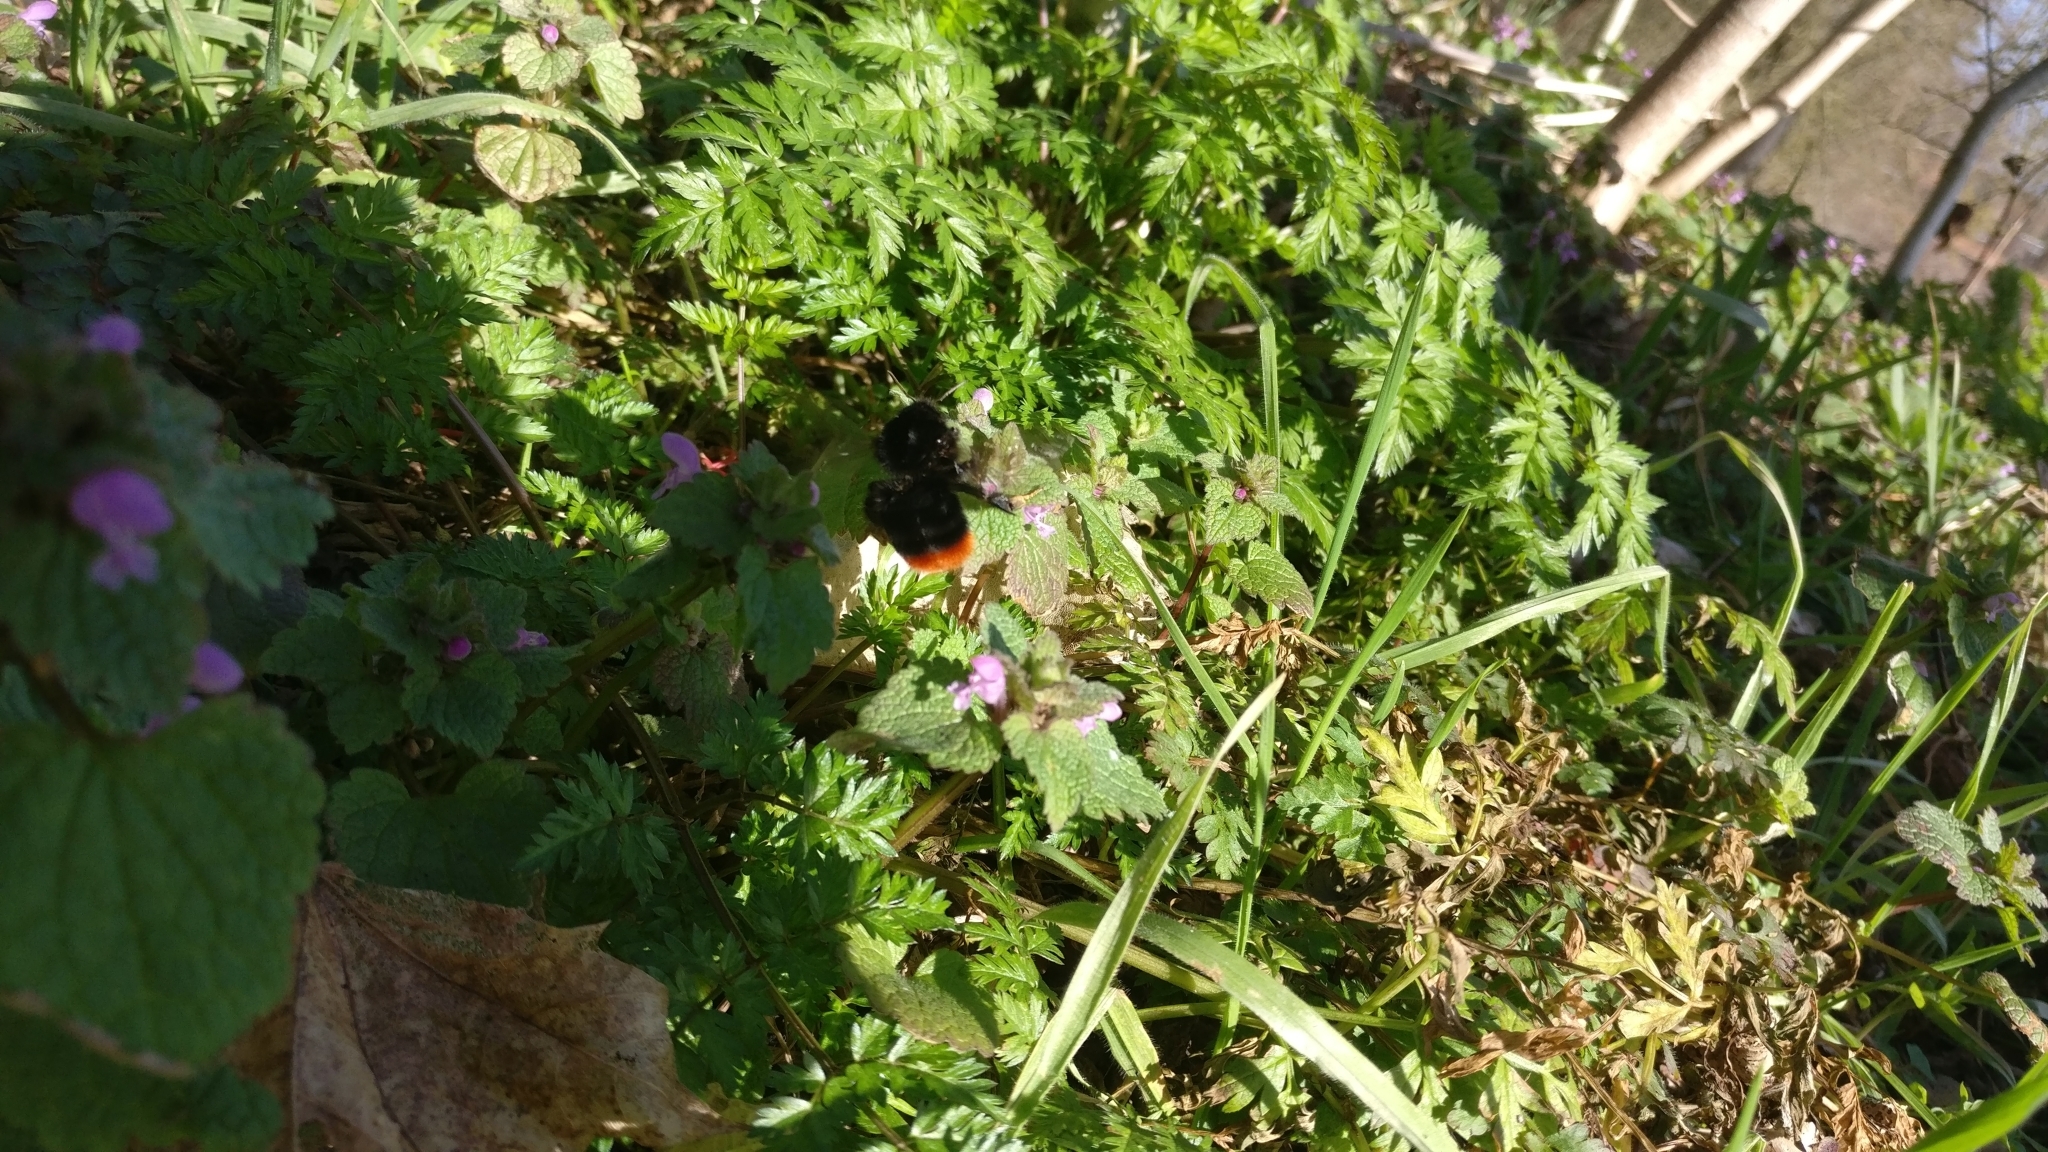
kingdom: Animalia
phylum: Arthropoda
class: Insecta
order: Hymenoptera
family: Apidae
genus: Bombus
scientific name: Bombus lapidarius
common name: Large red-tailed humble-bee
